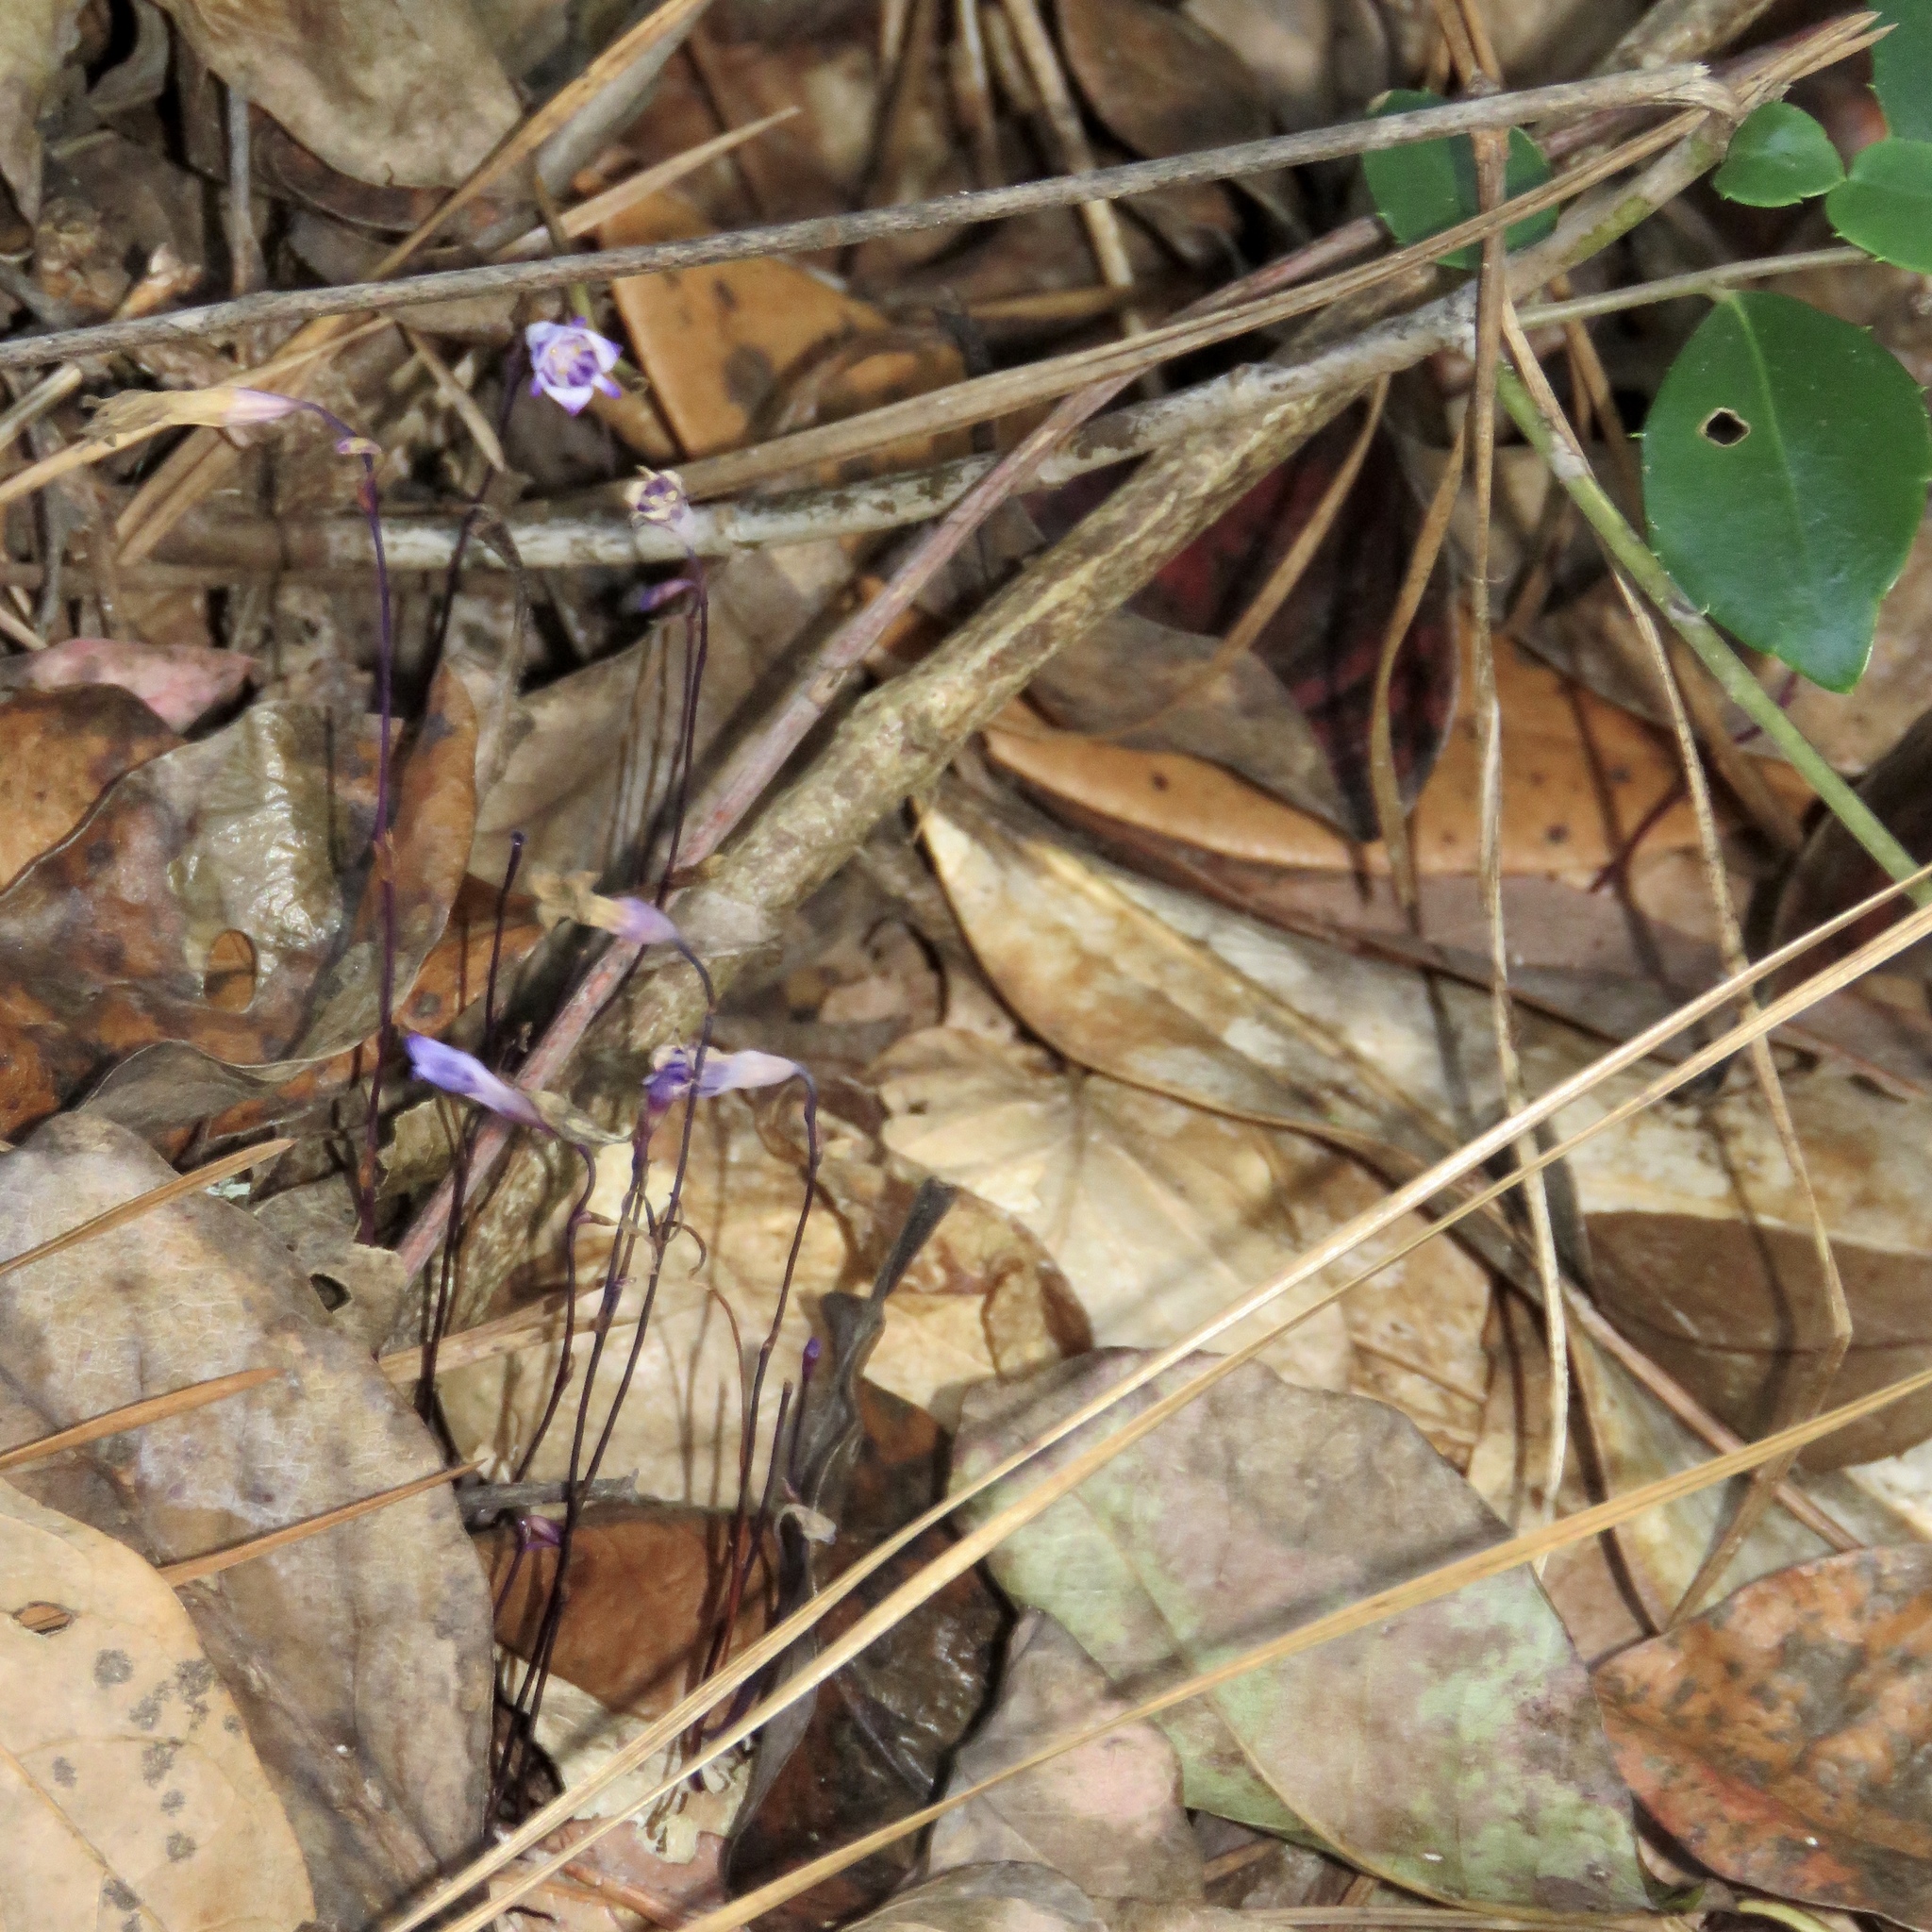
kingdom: Plantae
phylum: Tracheophyta
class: Liliopsida
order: Dioscoreales
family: Burmanniaceae
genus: Apteria
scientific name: Apteria aphylla
